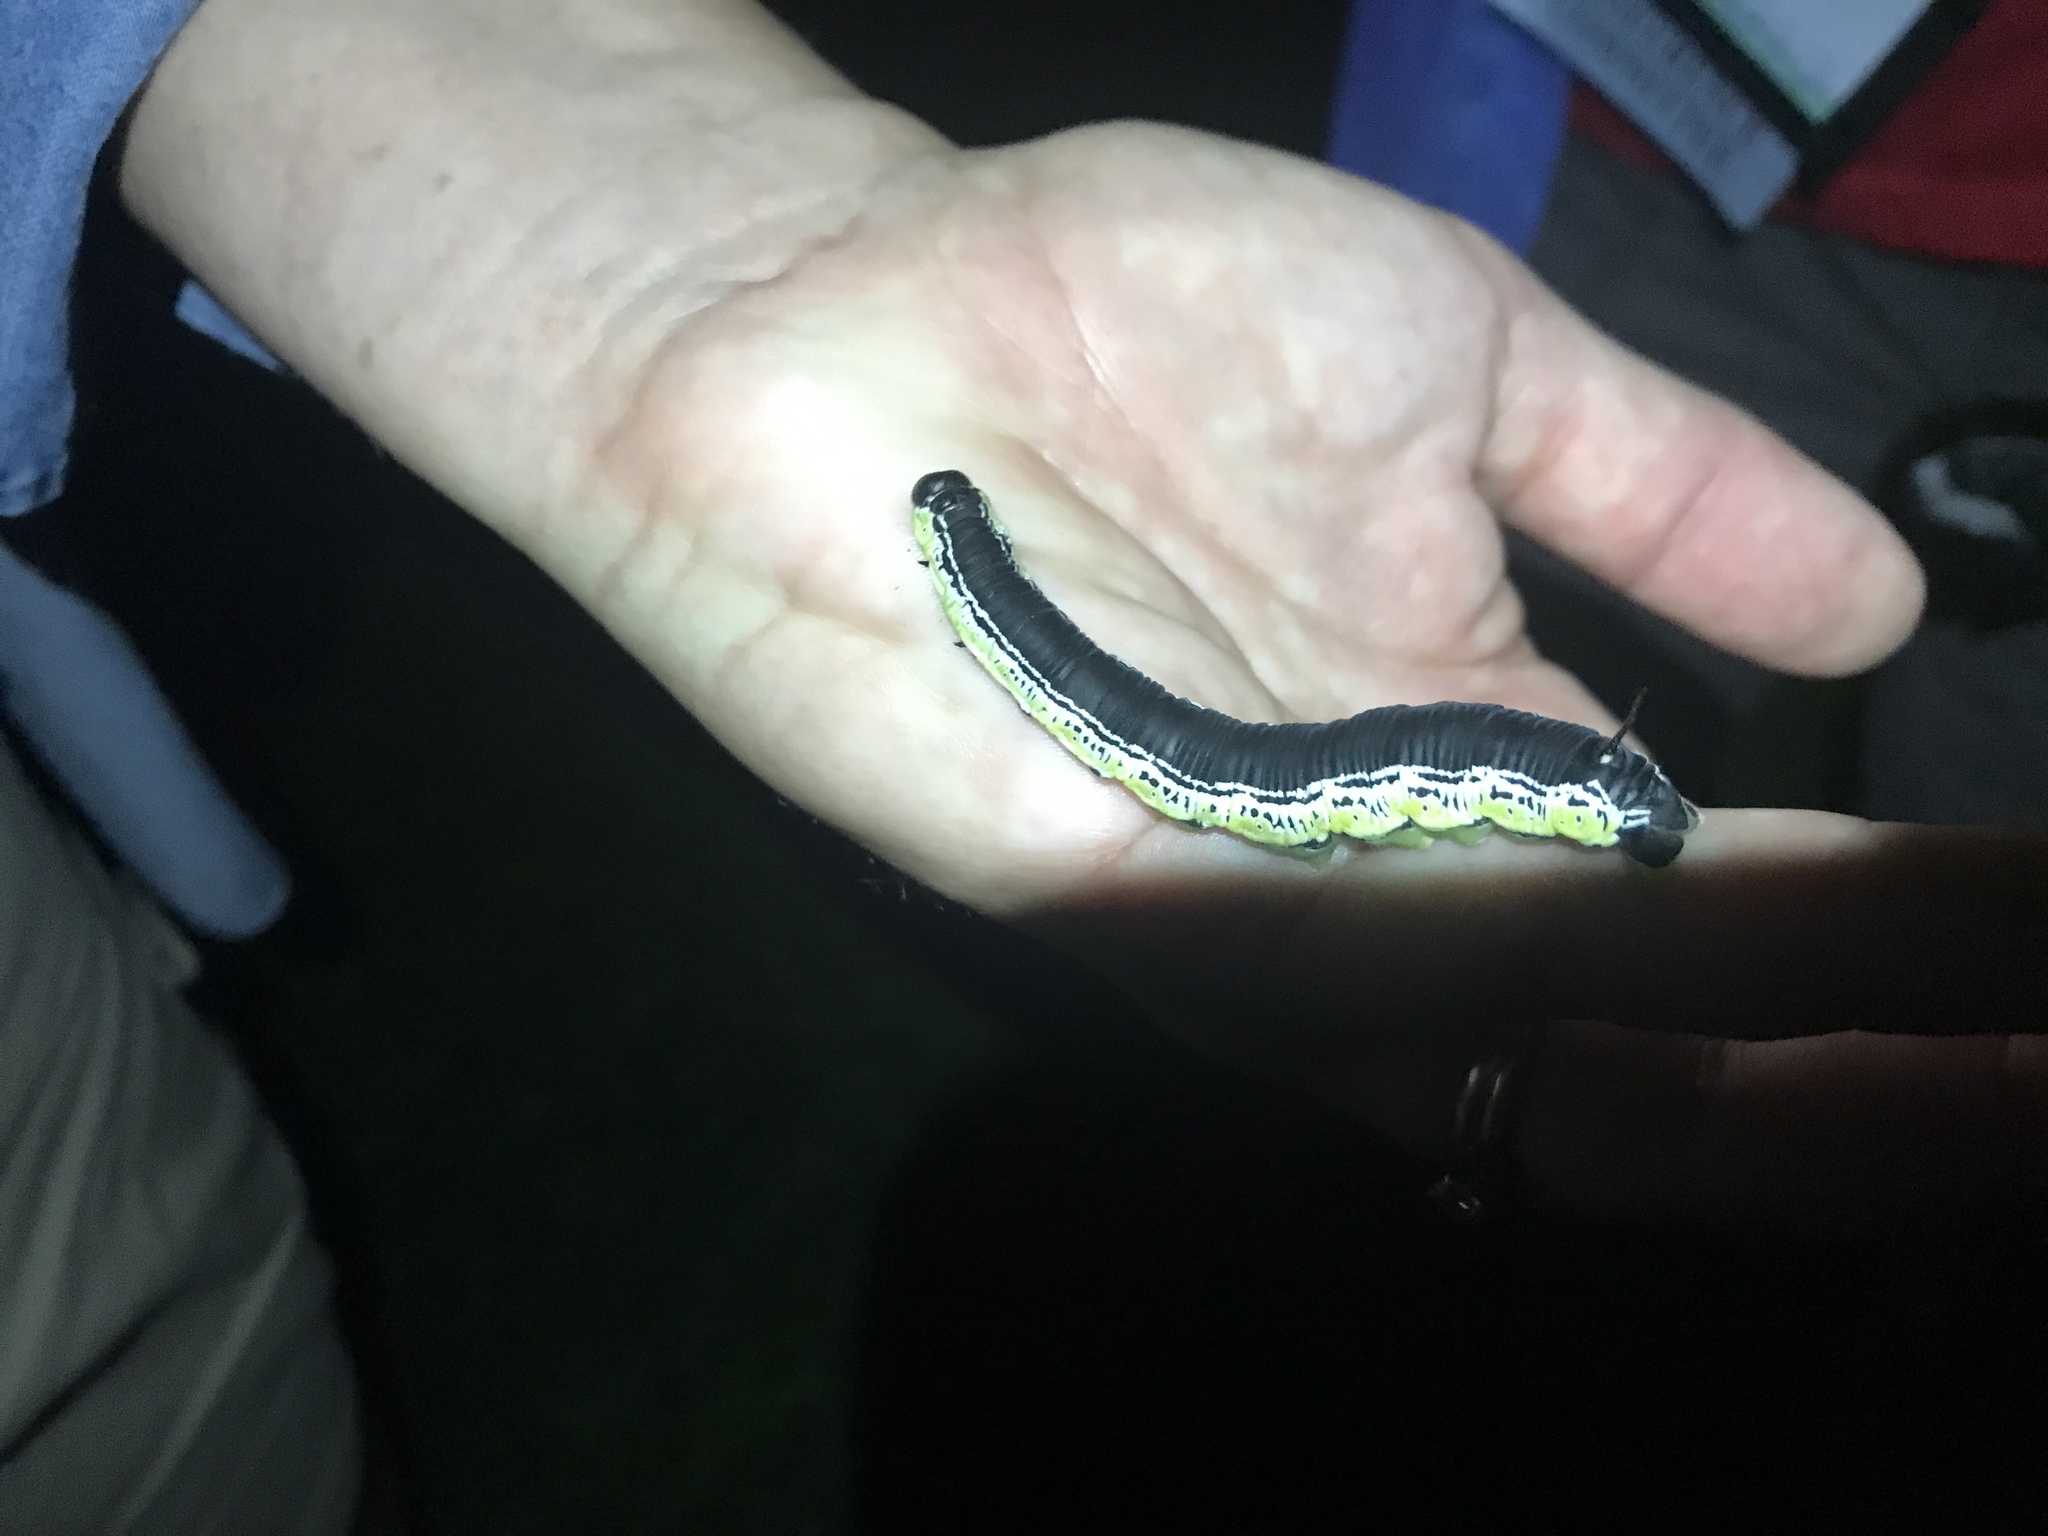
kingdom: Animalia
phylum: Arthropoda
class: Insecta
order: Lepidoptera
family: Sphingidae
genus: Ceratomia
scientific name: Ceratomia catalpae
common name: Catalpa hornworm
